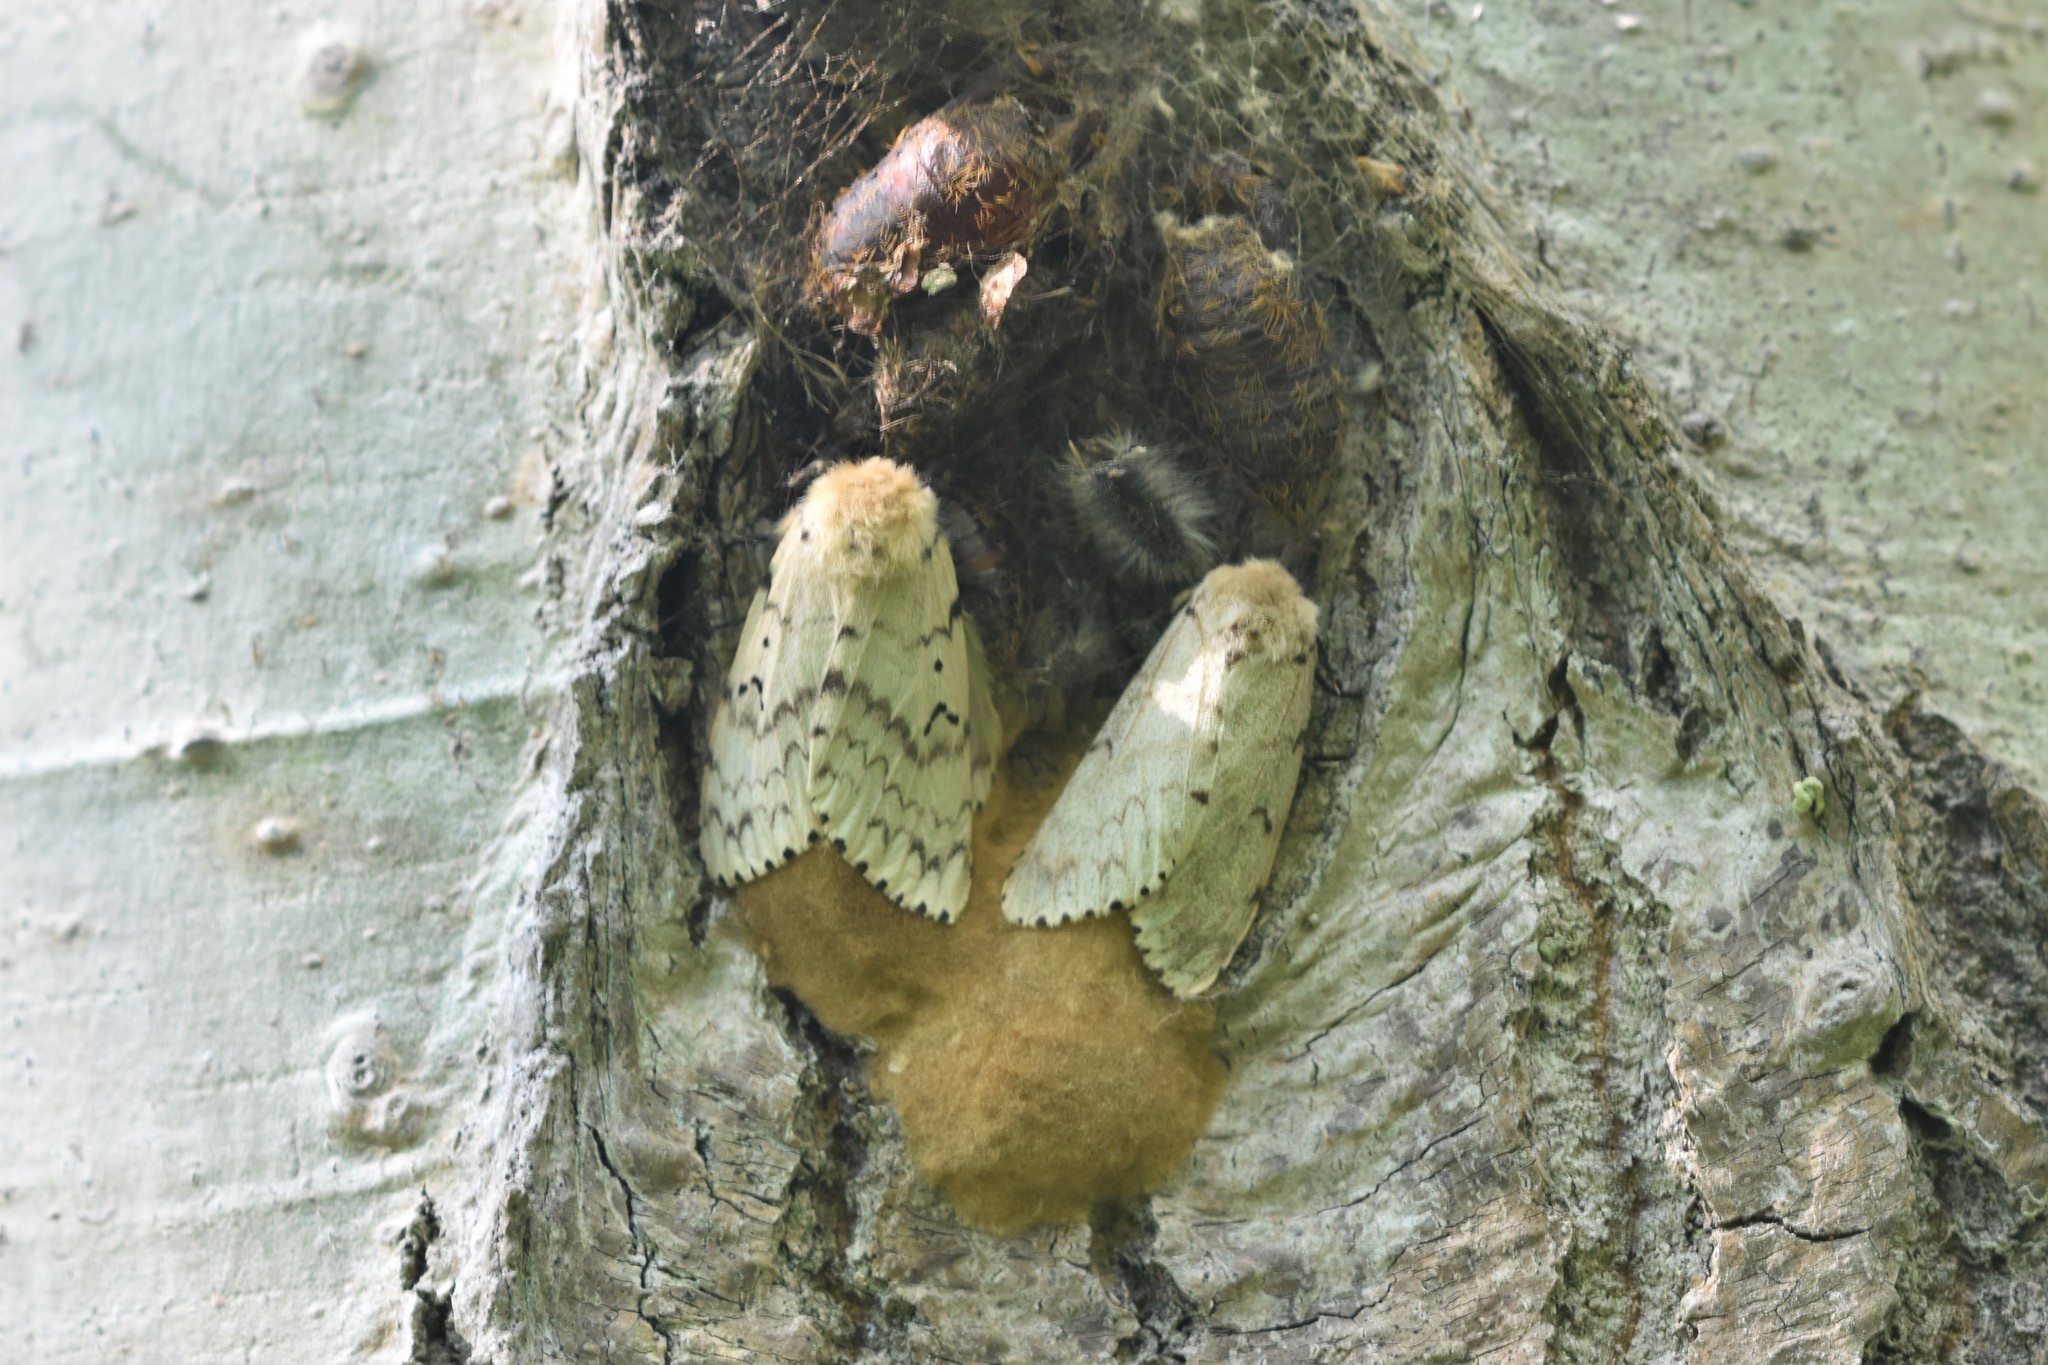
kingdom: Animalia
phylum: Arthropoda
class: Insecta
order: Lepidoptera
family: Erebidae
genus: Lymantria
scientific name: Lymantria dispar
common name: Gypsy moth
